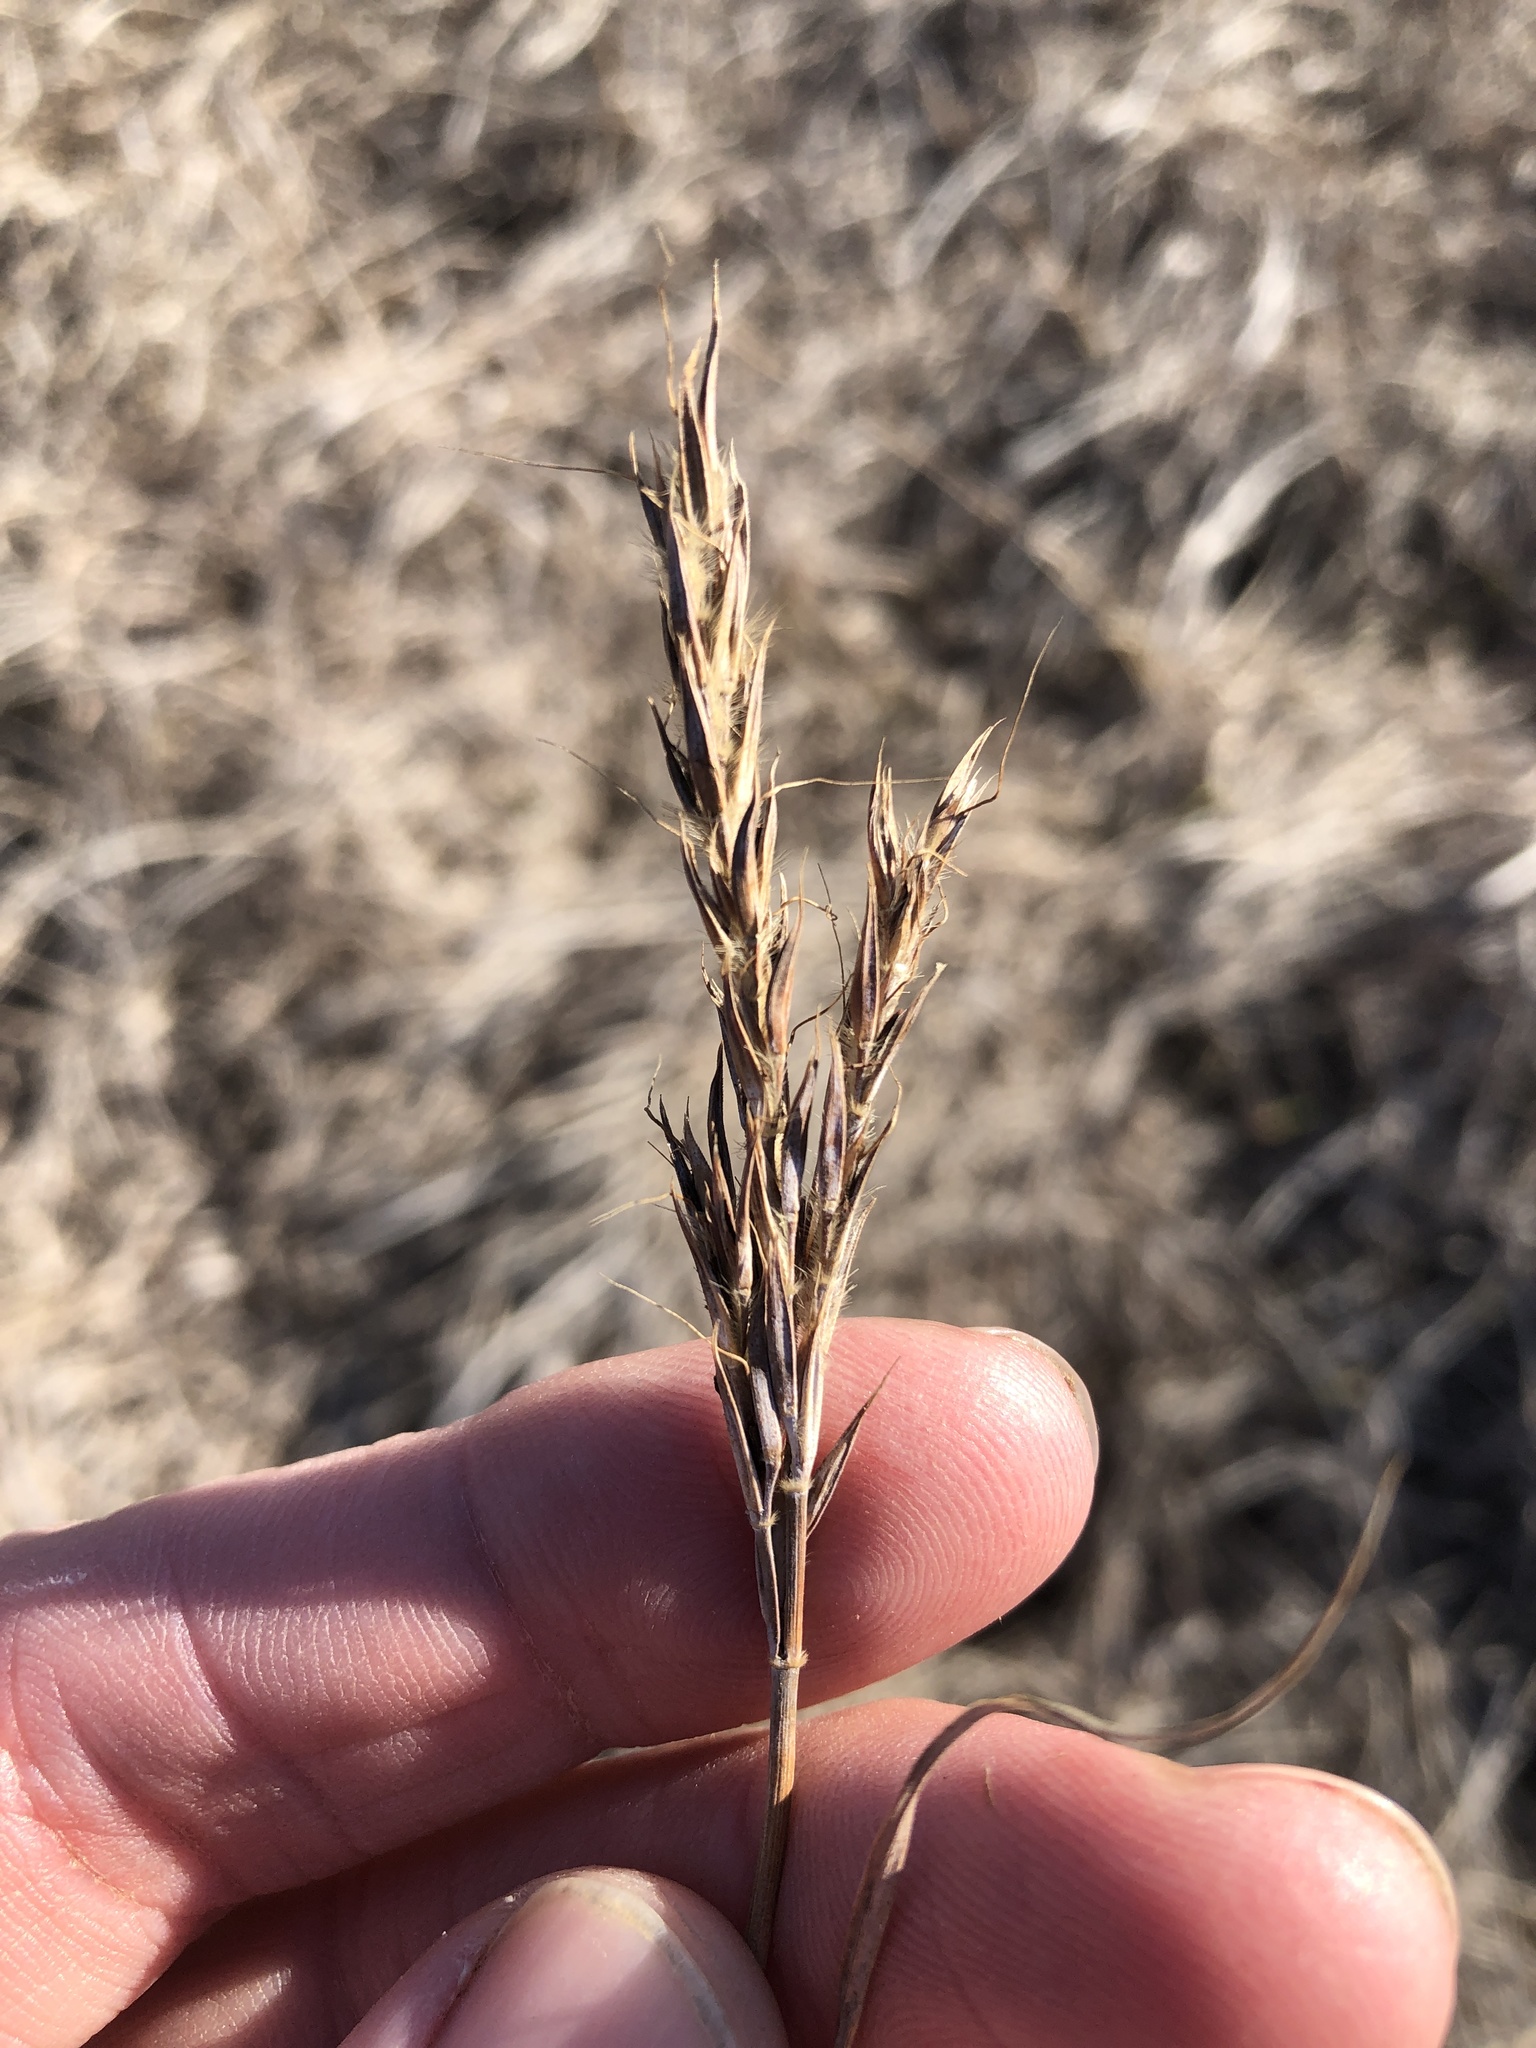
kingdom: Plantae
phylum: Tracheophyta
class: Liliopsida
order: Poales
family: Poaceae
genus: Andropogon
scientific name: Andropogon gerardi
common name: Big bluestem
